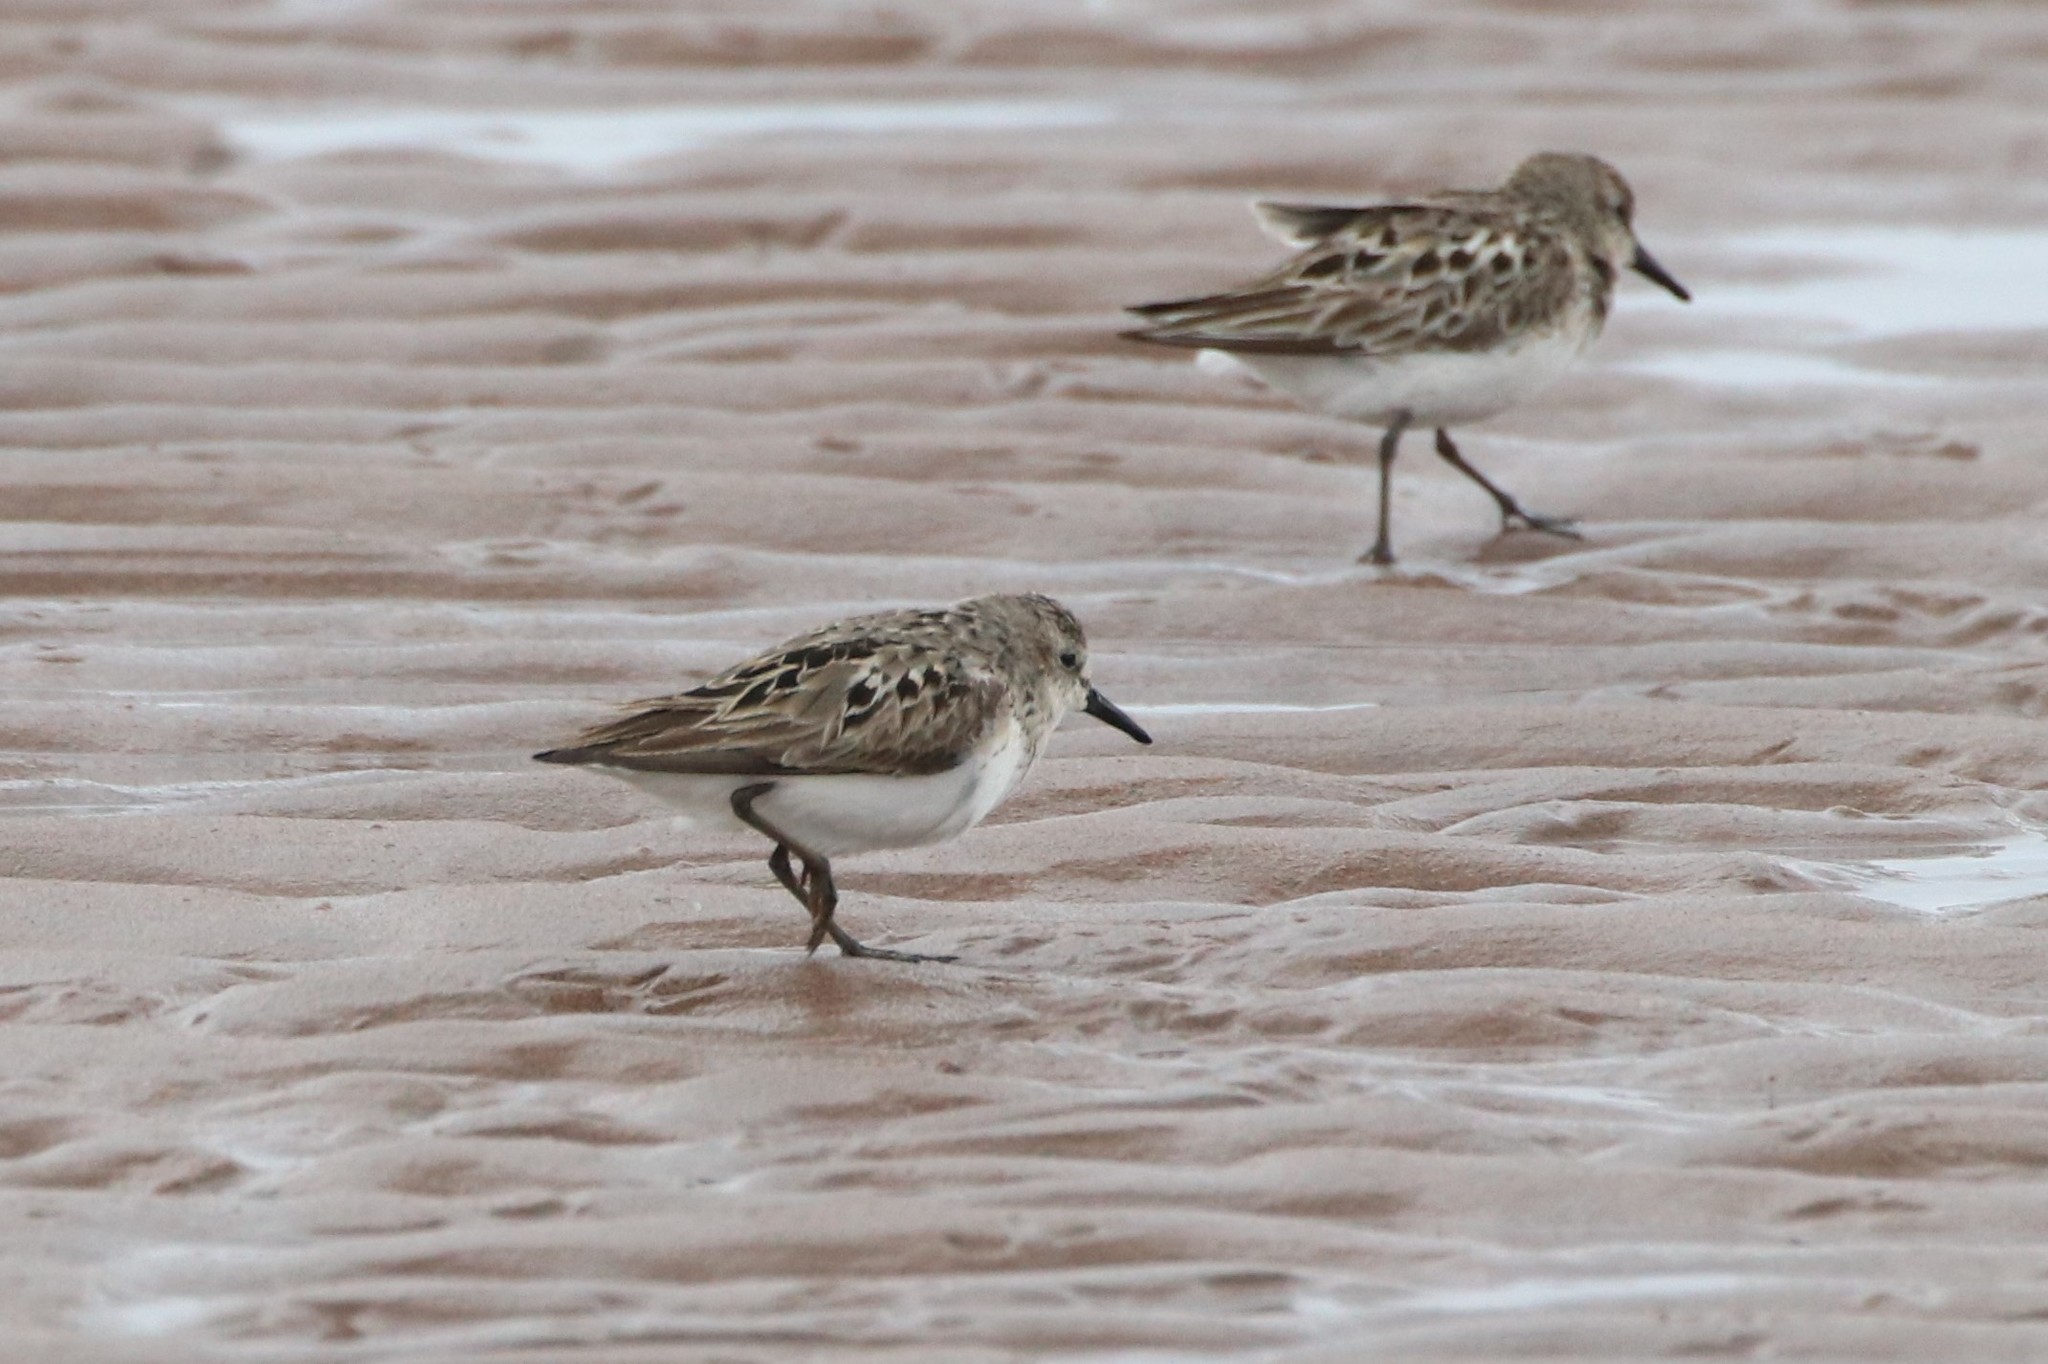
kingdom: Animalia
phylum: Chordata
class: Aves
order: Charadriiformes
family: Scolopacidae
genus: Calidris
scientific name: Calidris pusilla
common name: Semipalmated sandpiper
